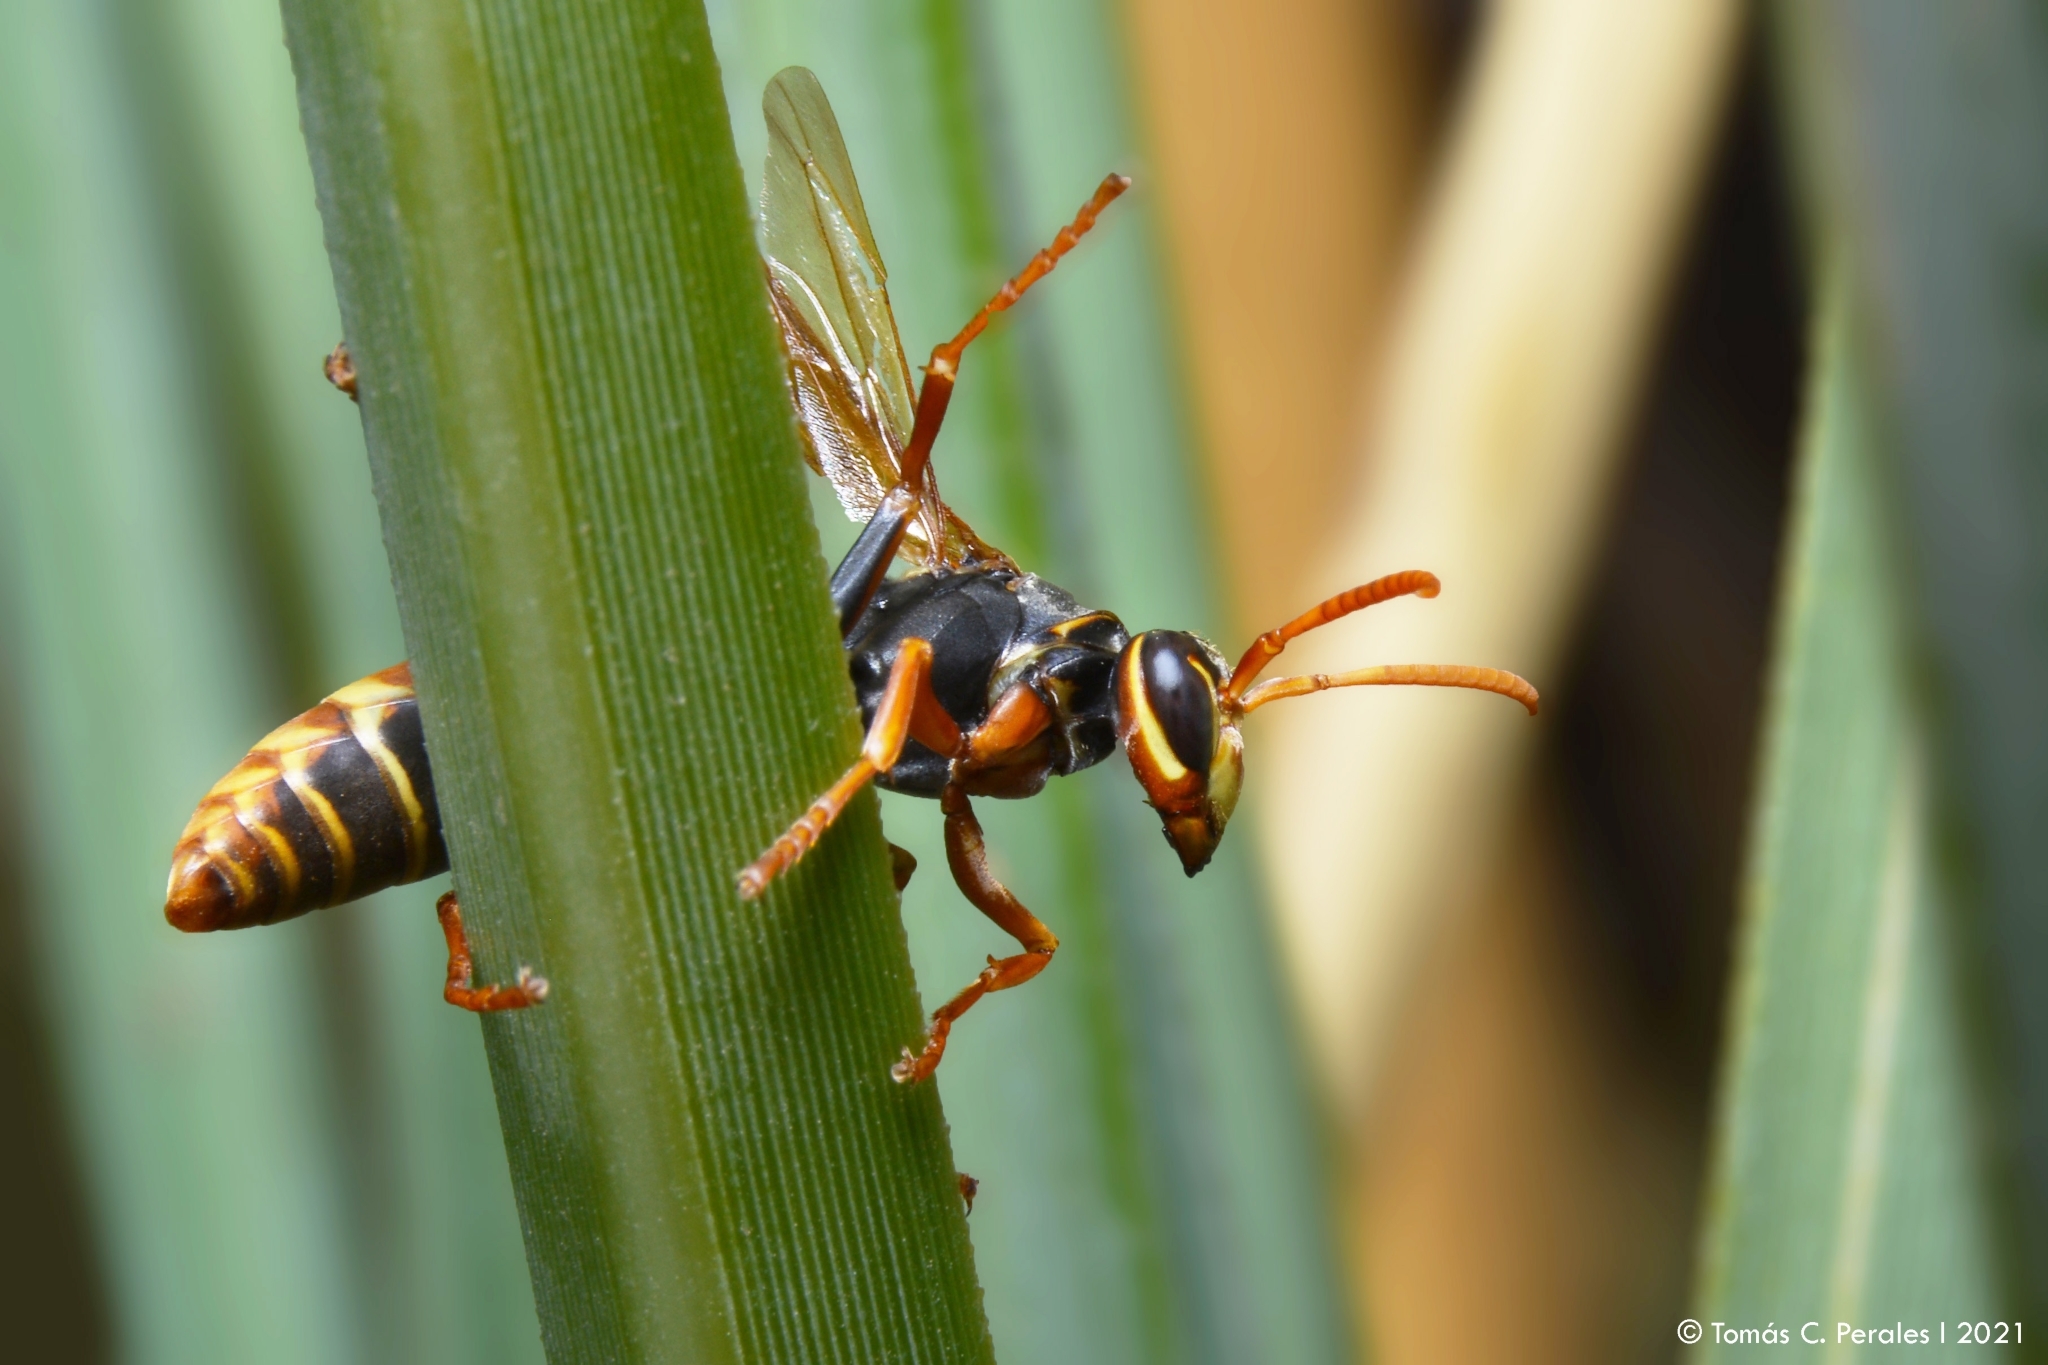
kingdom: Animalia
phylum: Arthropoda
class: Insecta
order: Hymenoptera
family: Eumenidae
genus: Polistes
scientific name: Polistes billardieri
